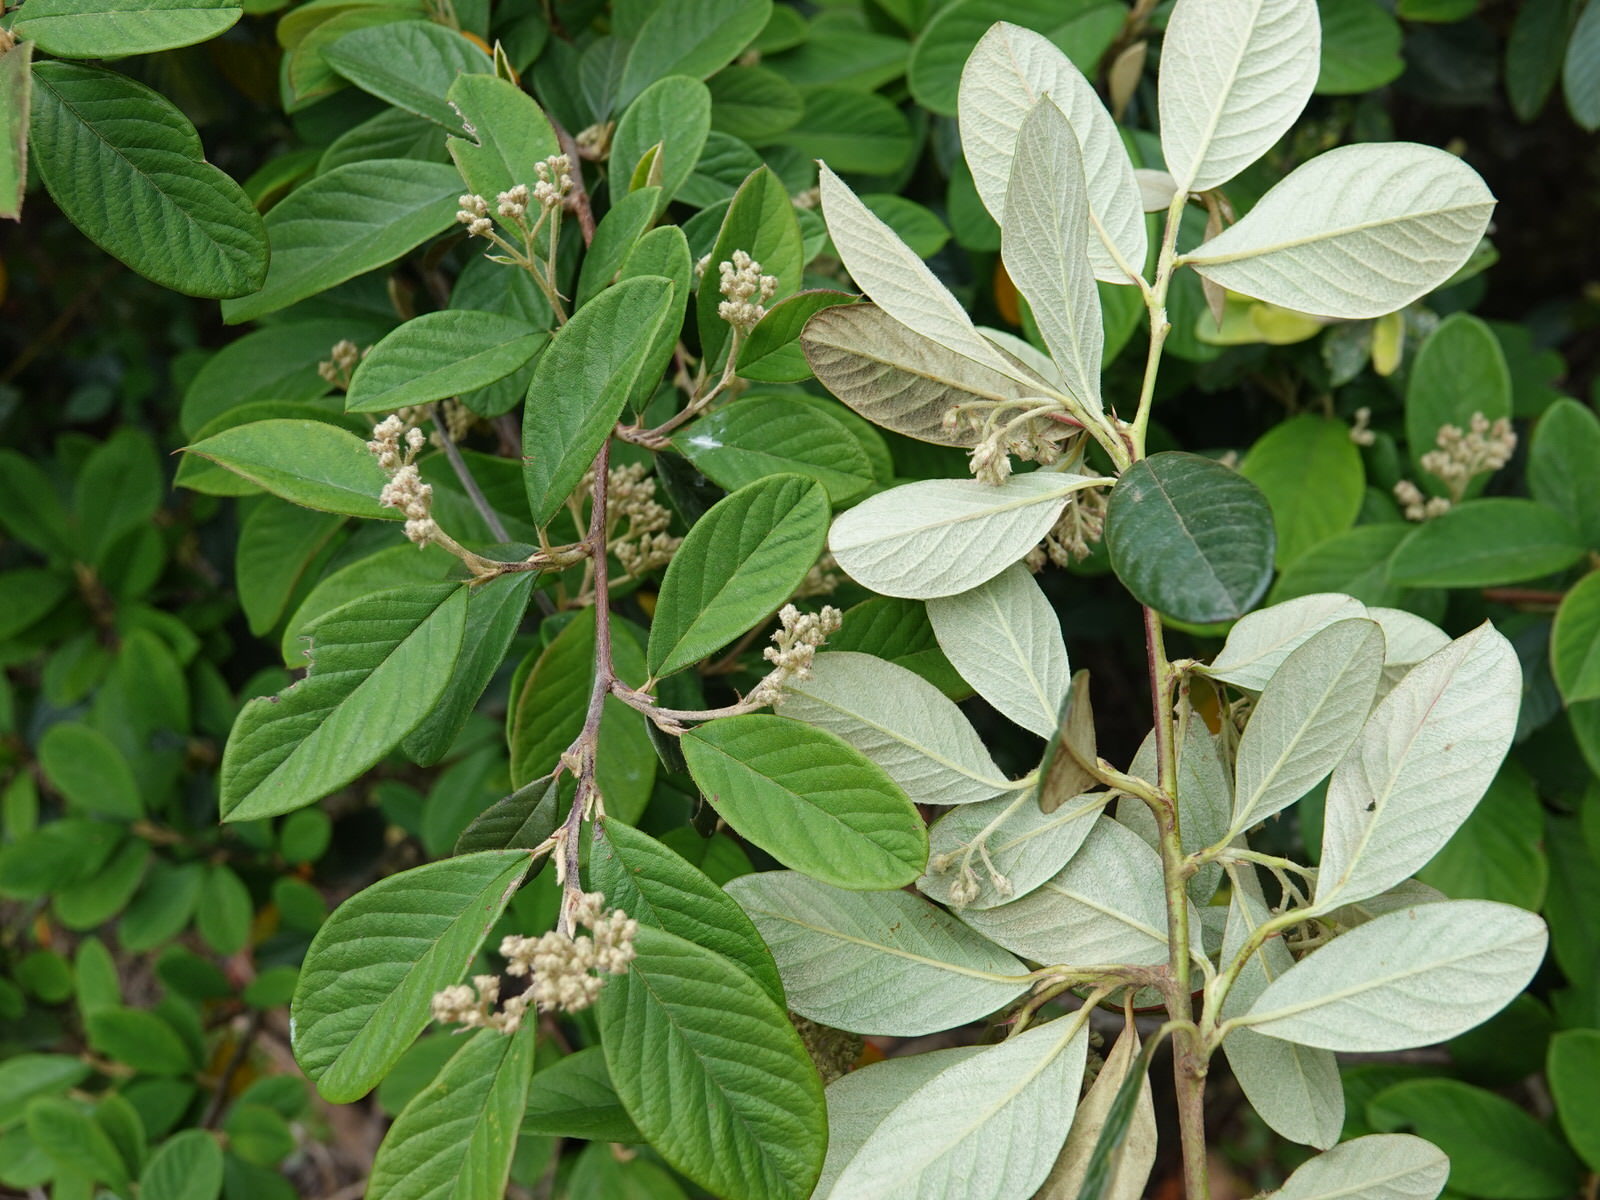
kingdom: Plantae
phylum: Tracheophyta
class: Magnoliopsida
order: Rosales
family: Rosaceae
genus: Cotoneaster
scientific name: Cotoneaster coriaceus
